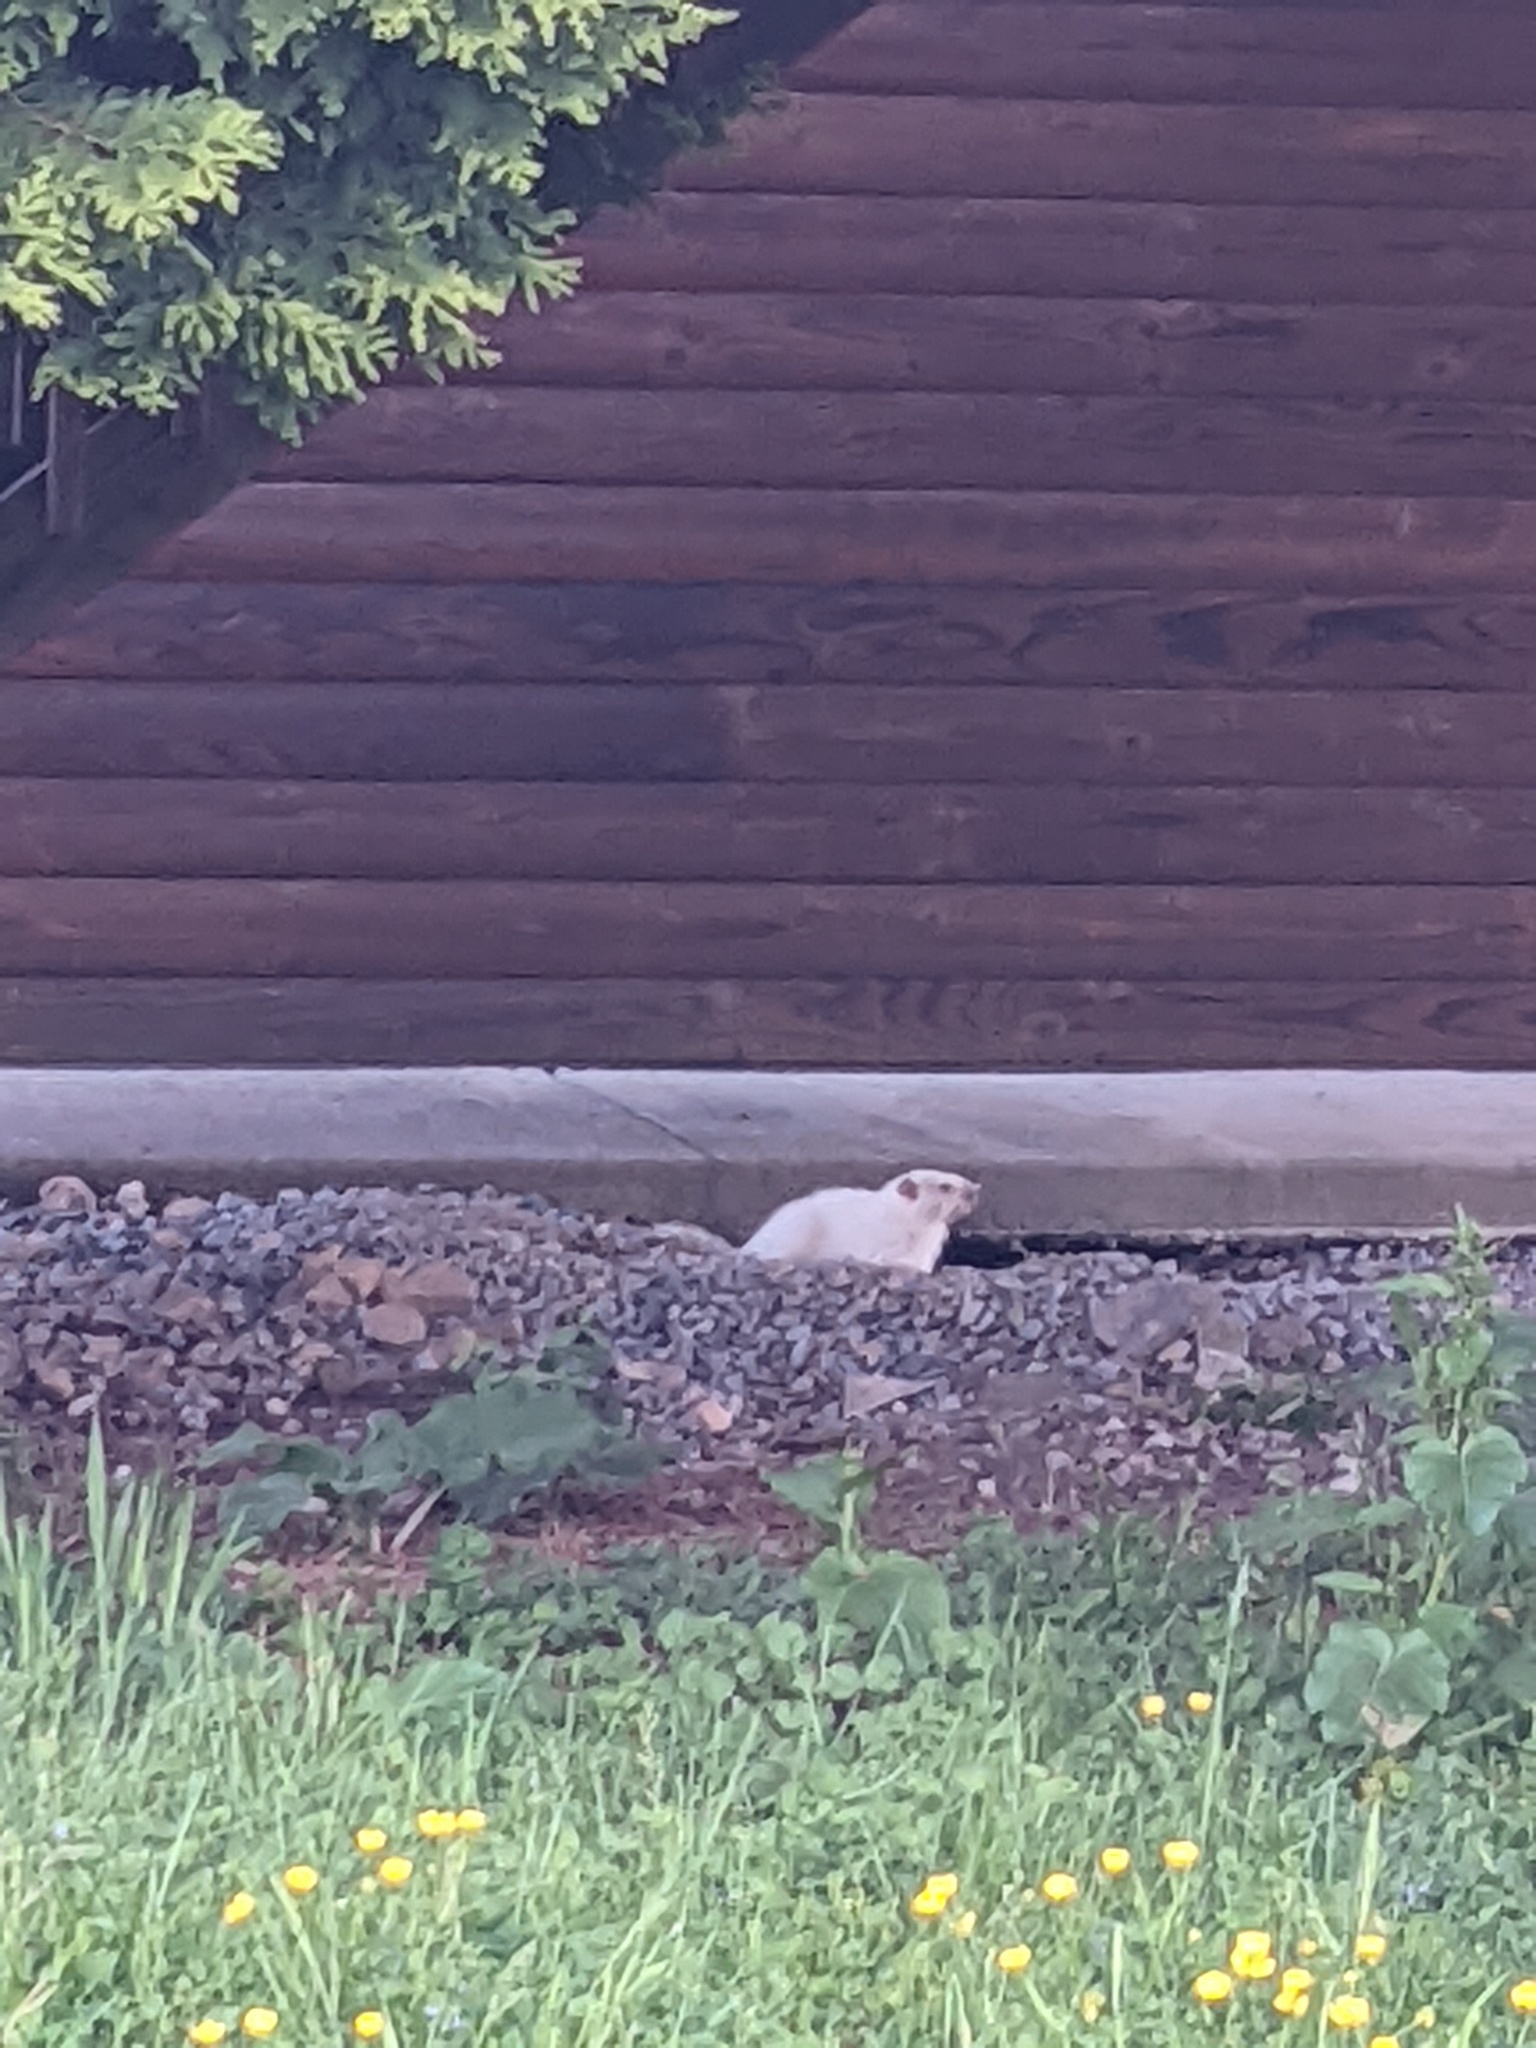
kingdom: Animalia
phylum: Chordata
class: Mammalia
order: Rodentia
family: Sciuridae
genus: Marmota
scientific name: Marmota monax
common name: Groundhog
